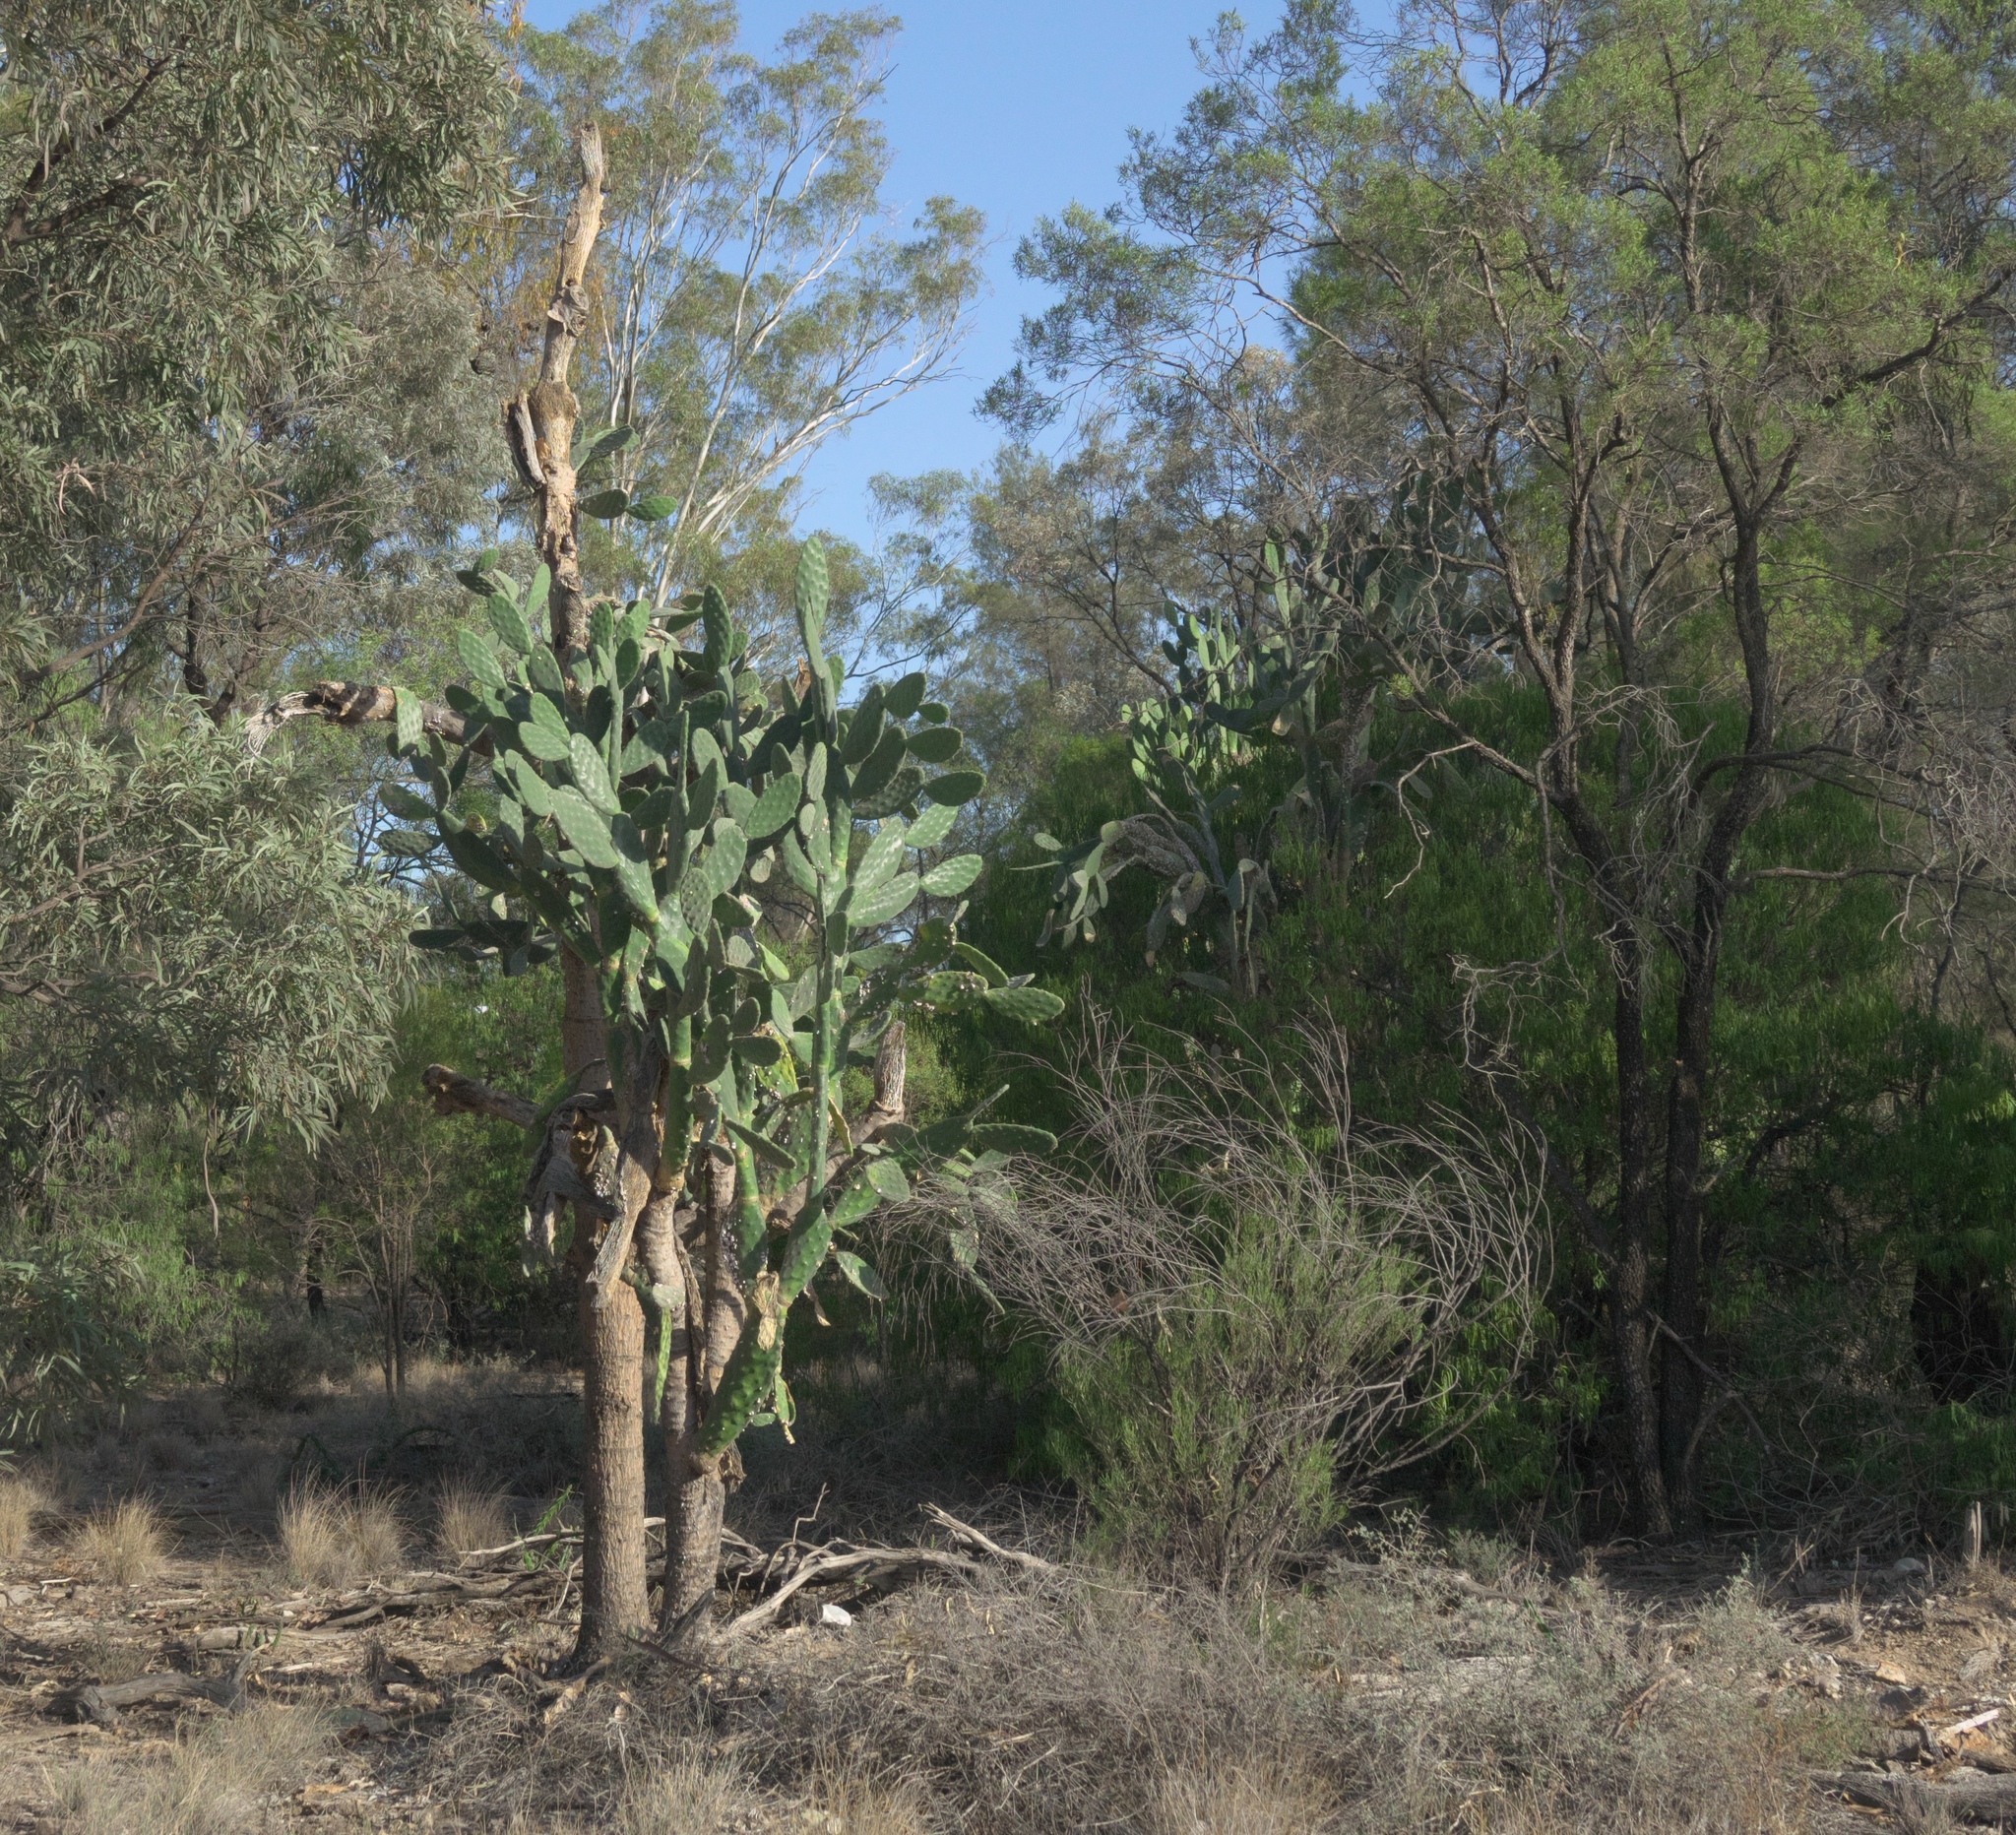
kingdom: Plantae
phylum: Tracheophyta
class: Magnoliopsida
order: Caryophyllales
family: Cactaceae
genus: Opuntia
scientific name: Opuntia tomentosa
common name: Woollyjoint pricklypear
